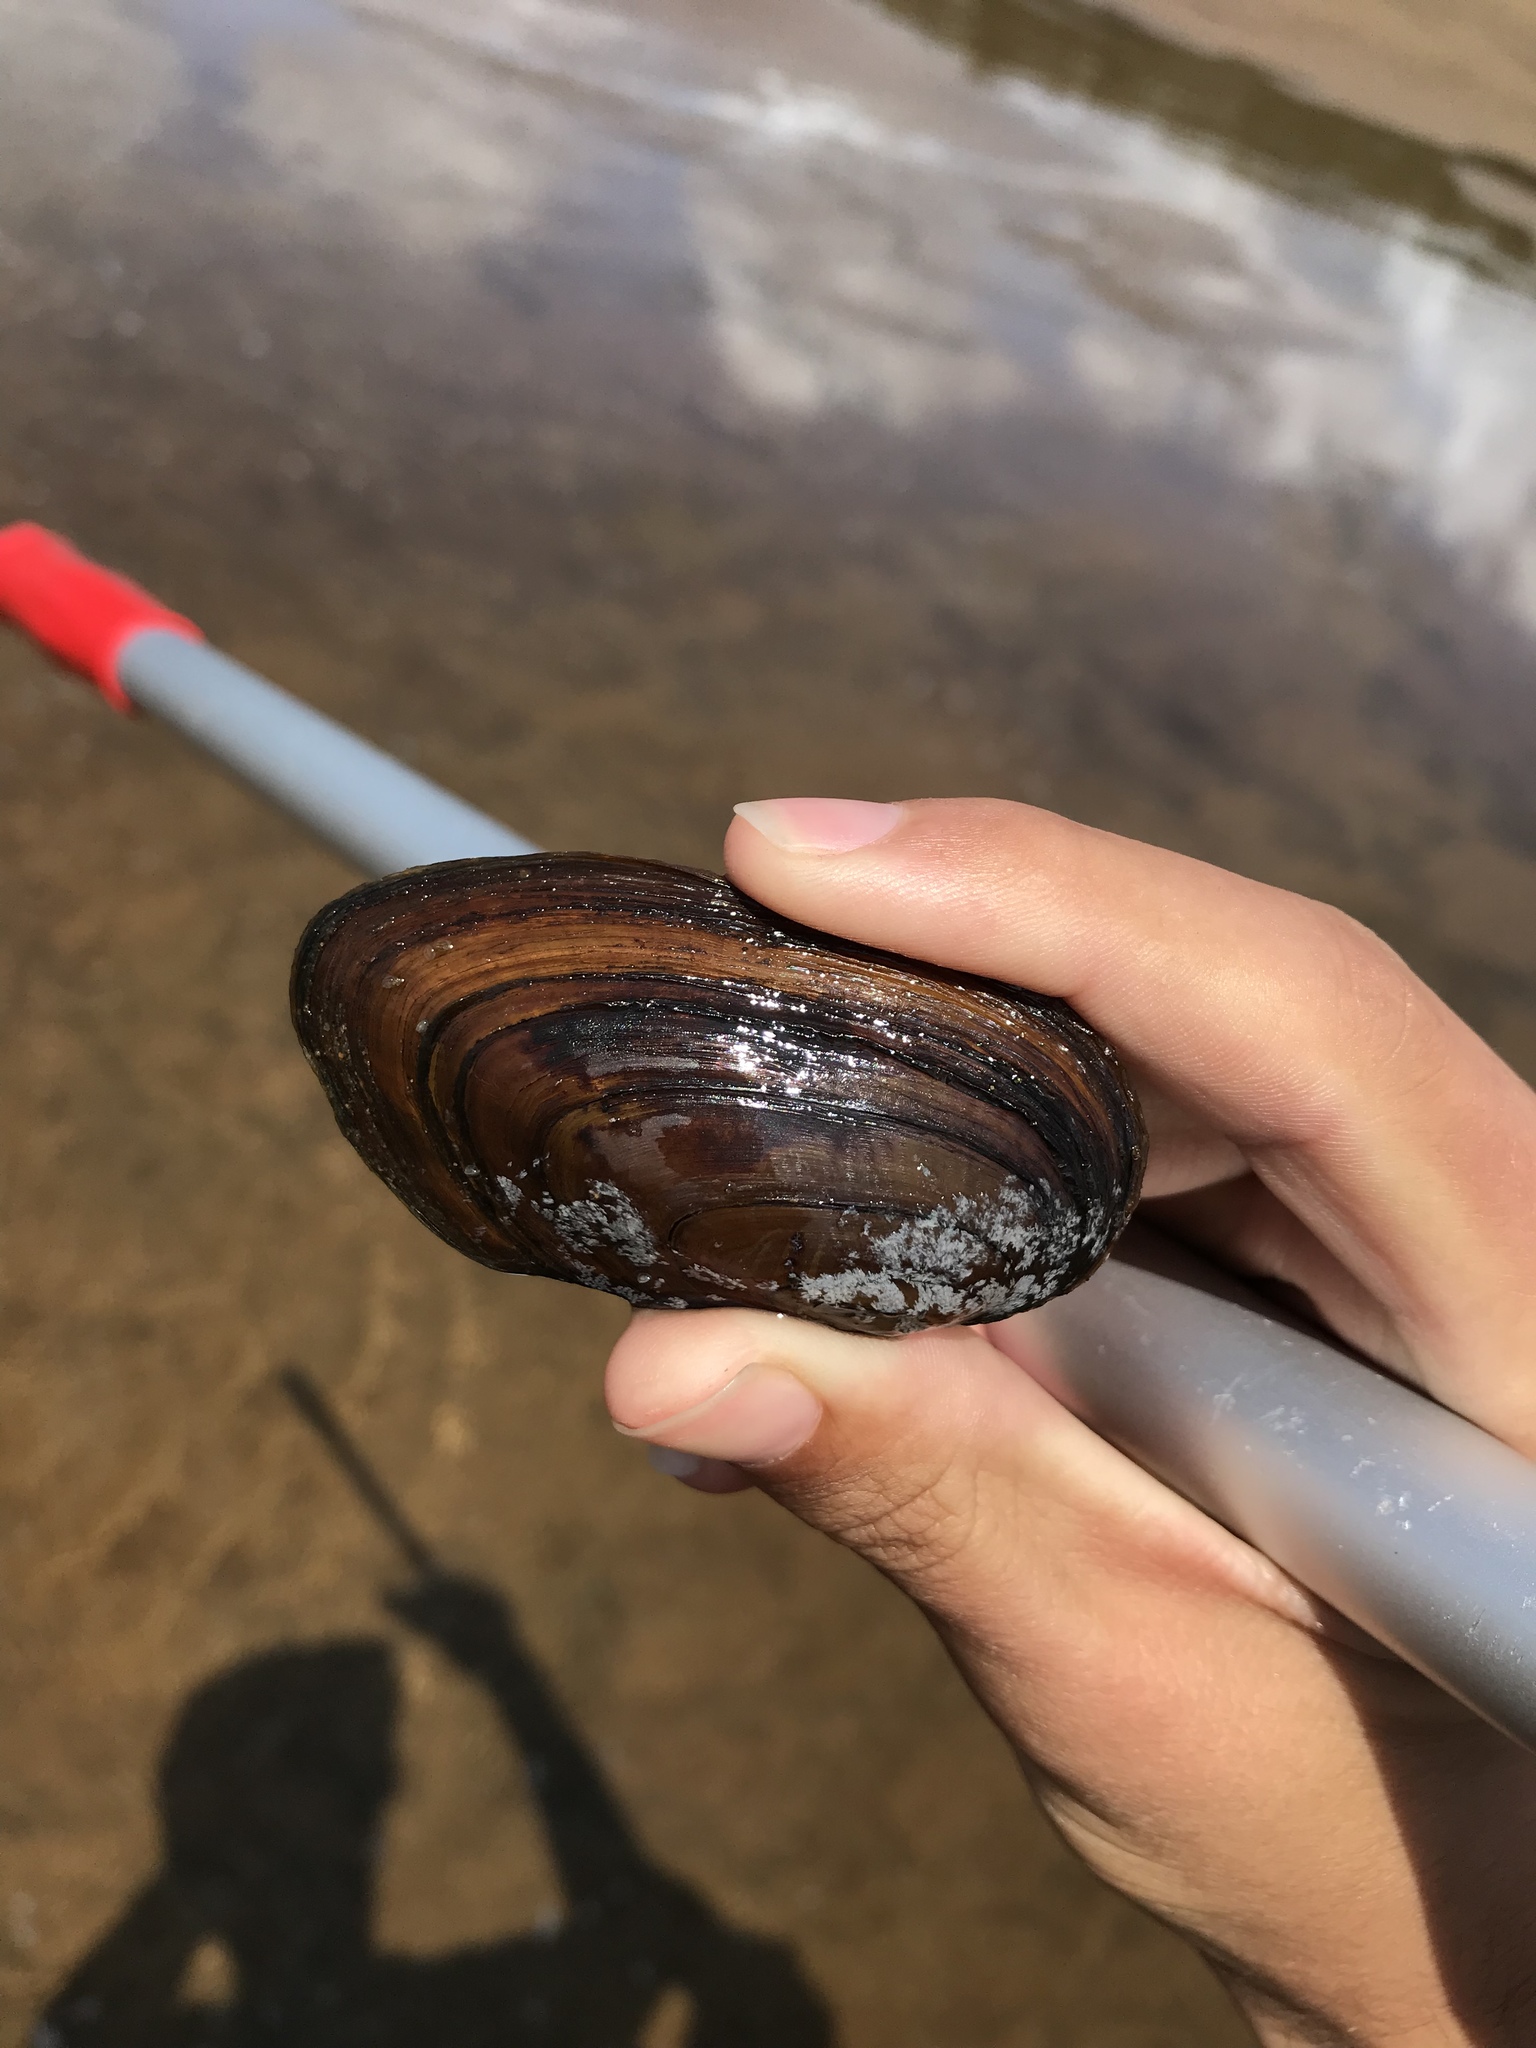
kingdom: Animalia
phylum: Mollusca
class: Bivalvia
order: Unionida
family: Unionidae
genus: Elliptio
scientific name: Elliptio complanata
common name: Eastern elliptio
